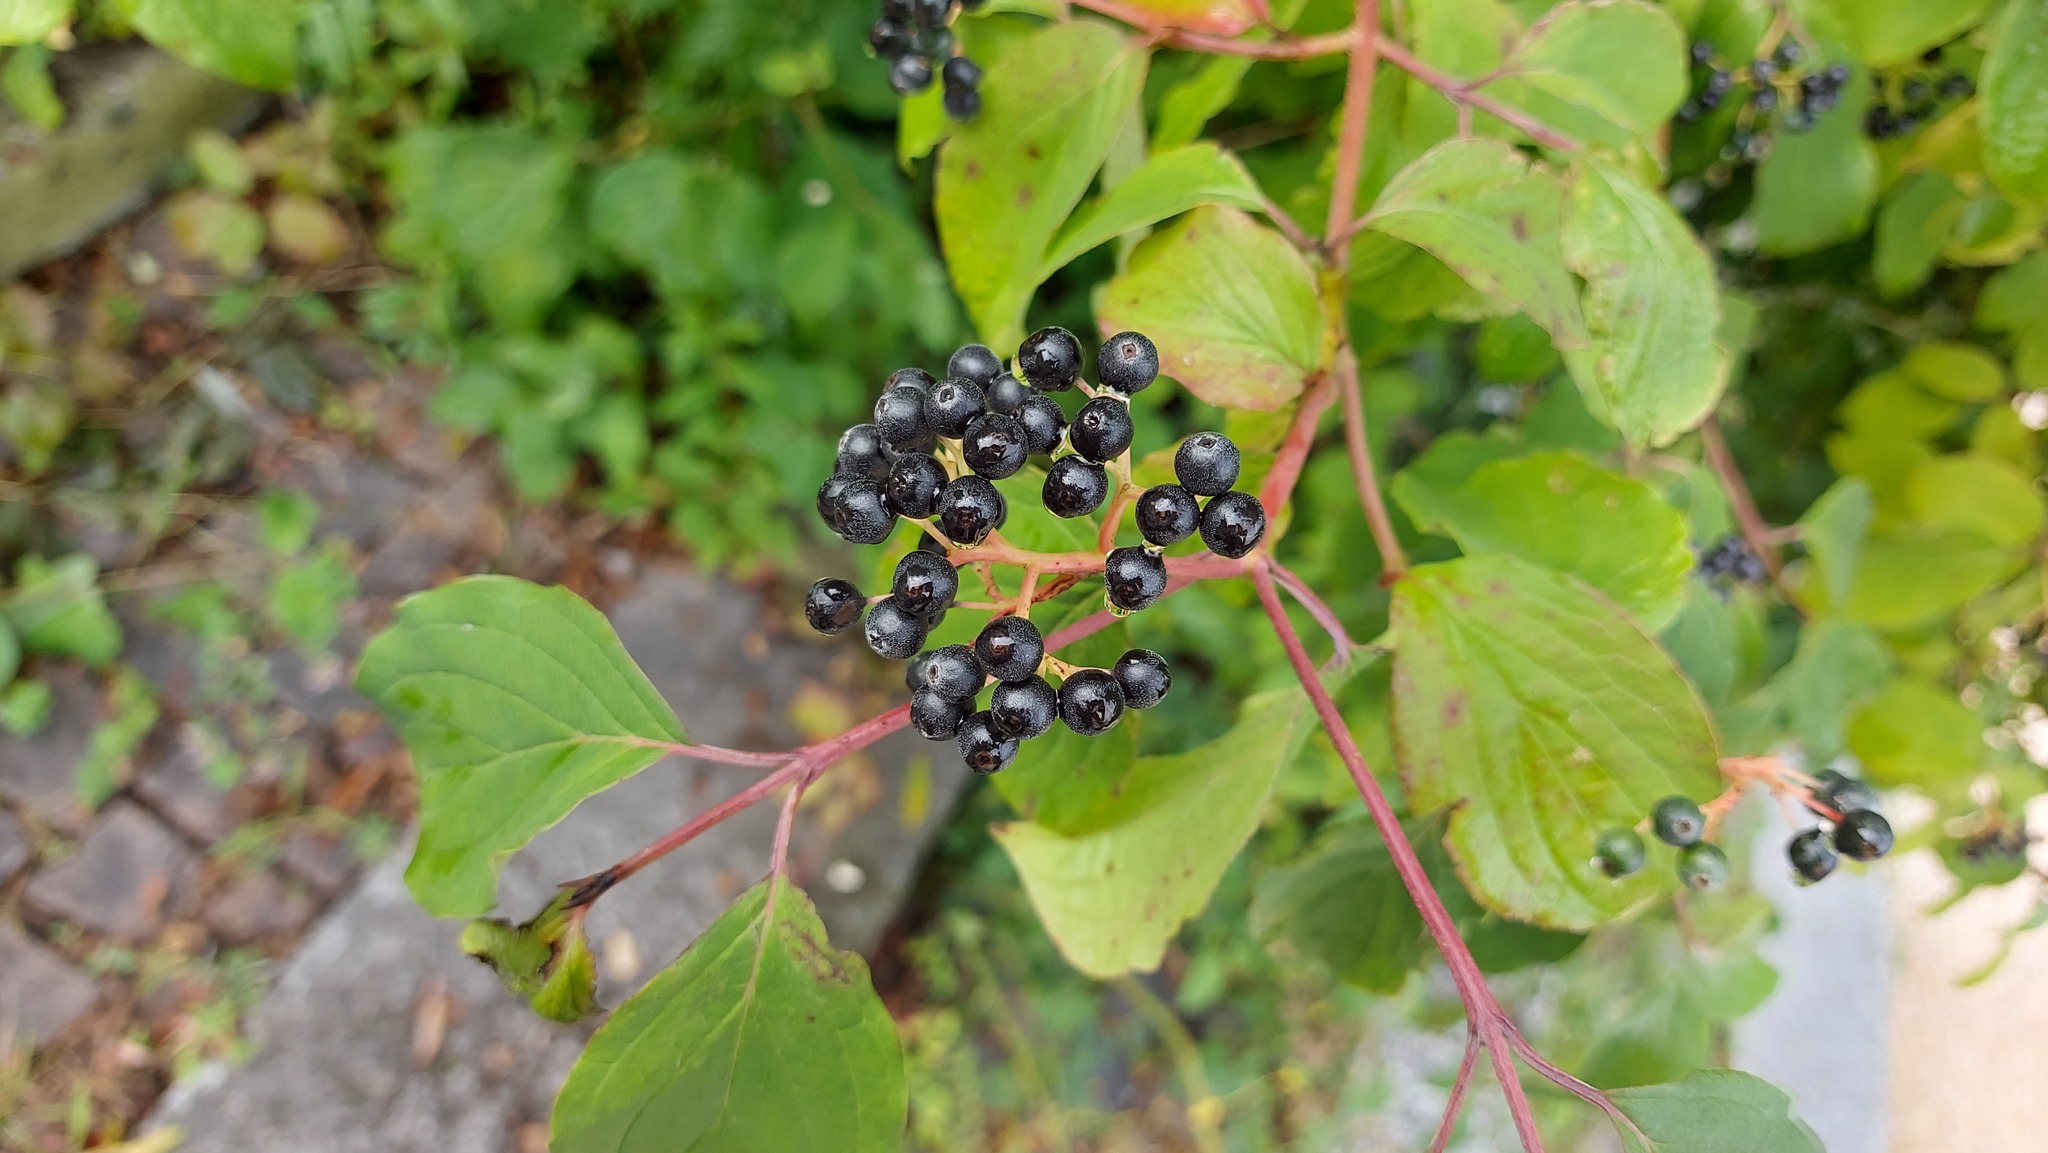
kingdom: Plantae
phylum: Tracheophyta
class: Magnoliopsida
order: Cornales
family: Cornaceae
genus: Cornus
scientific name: Cornus sanguinea
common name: Dogwood
